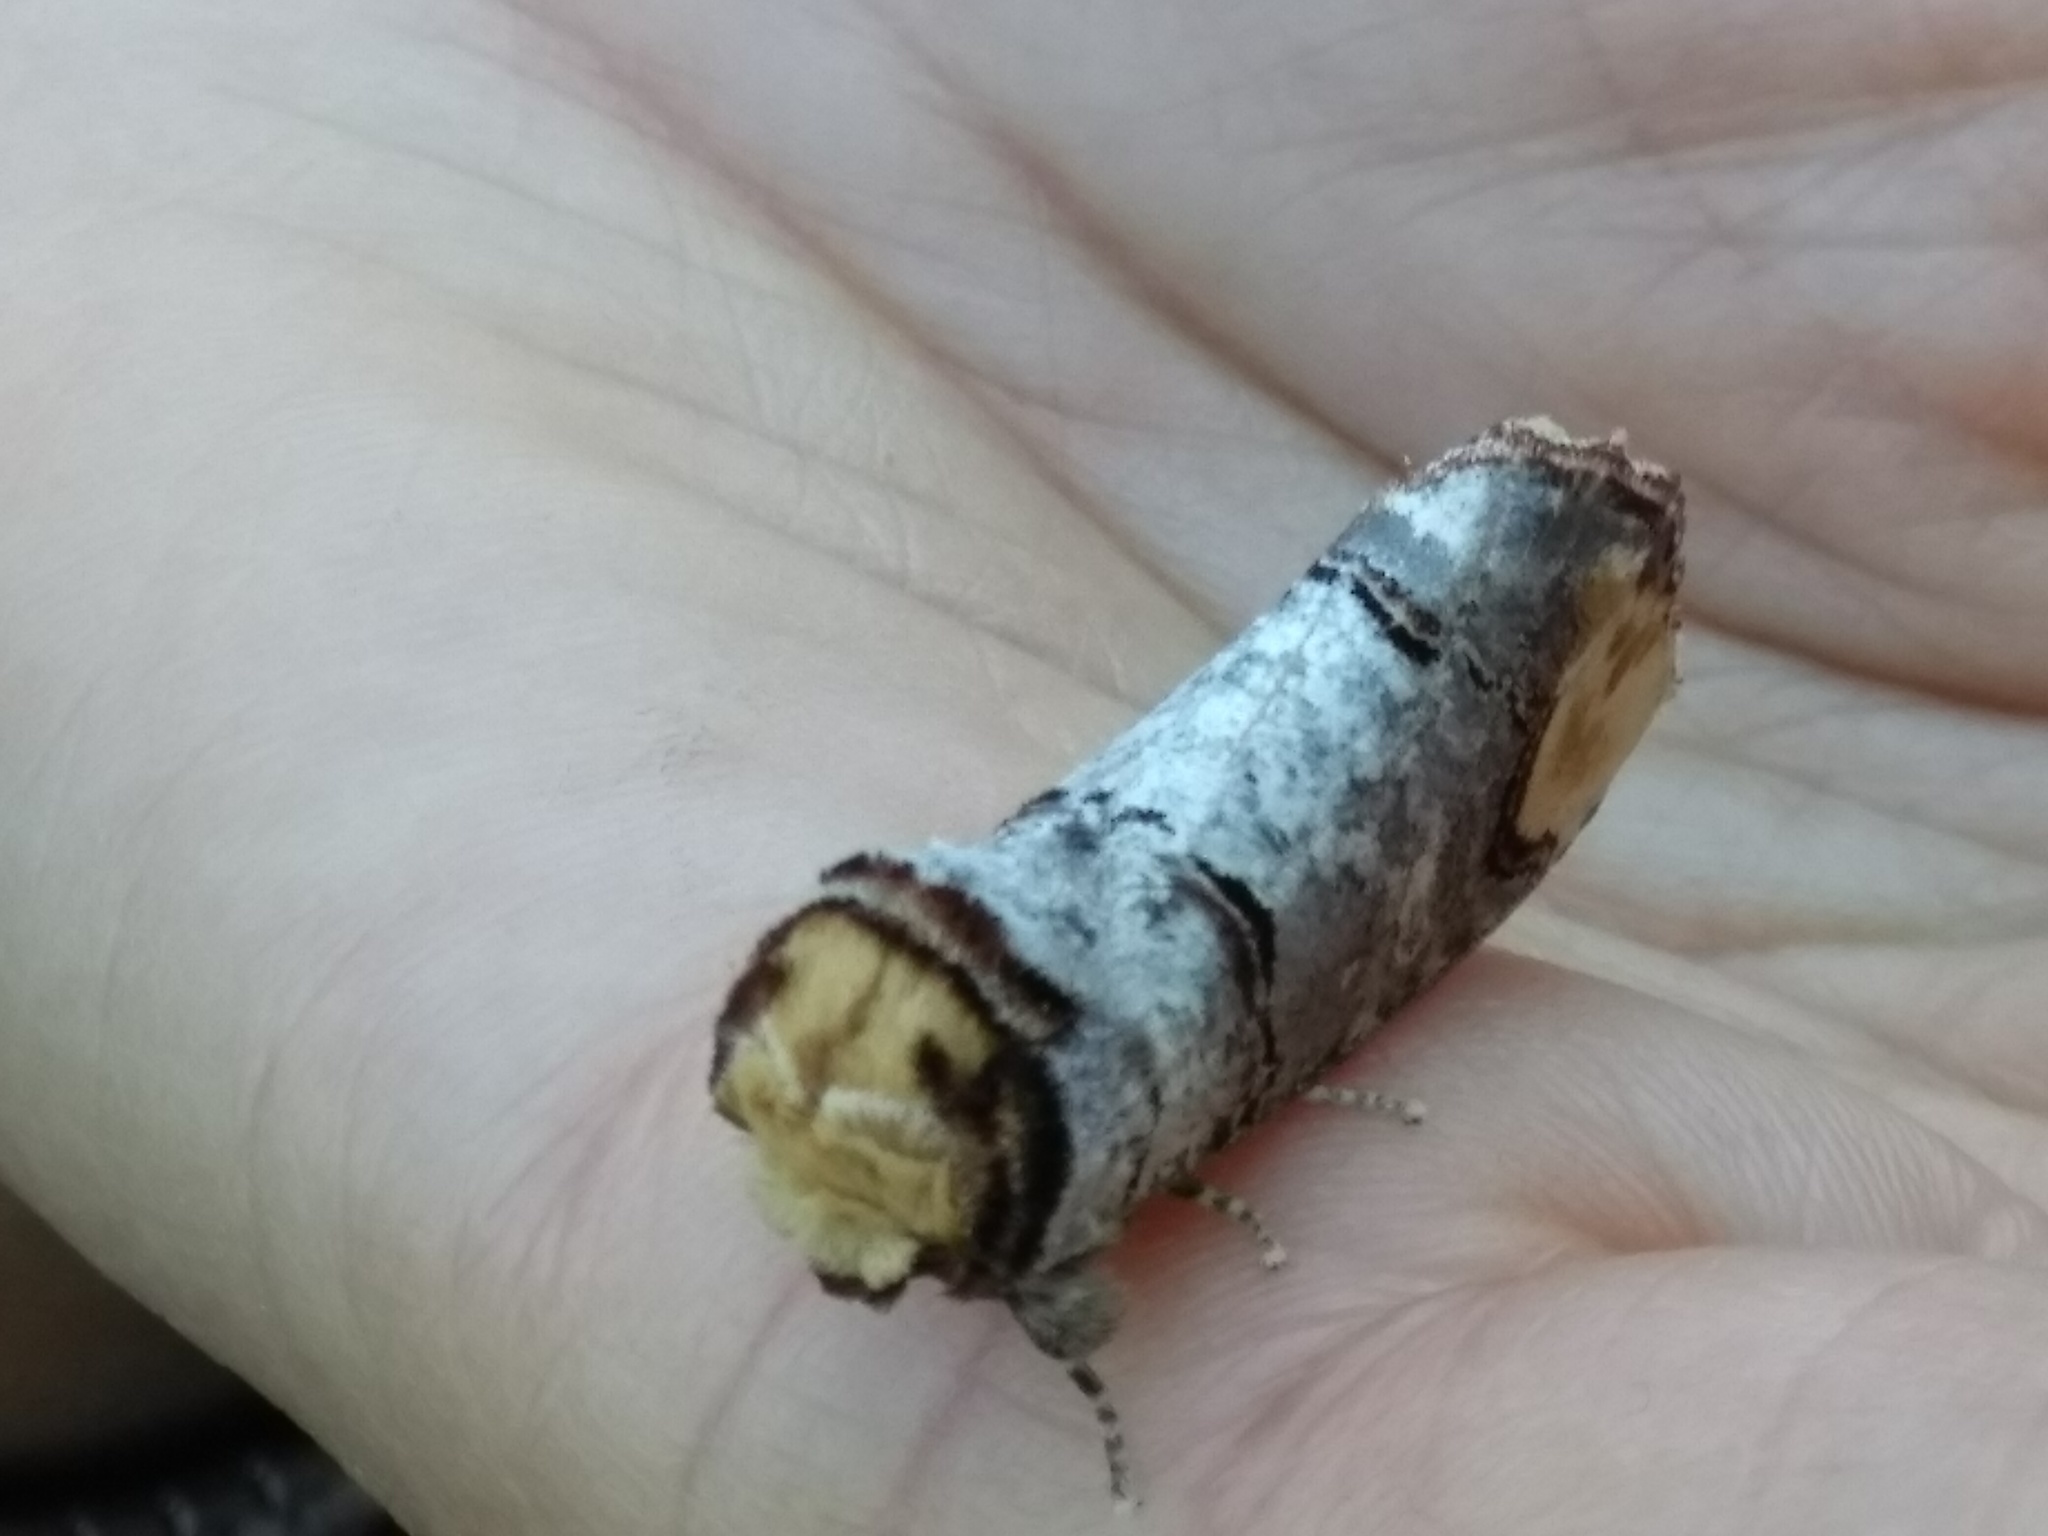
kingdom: Animalia
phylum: Arthropoda
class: Insecta
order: Lepidoptera
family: Notodontidae
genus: Phalera
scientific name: Phalera bucephala
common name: Buff-tip
